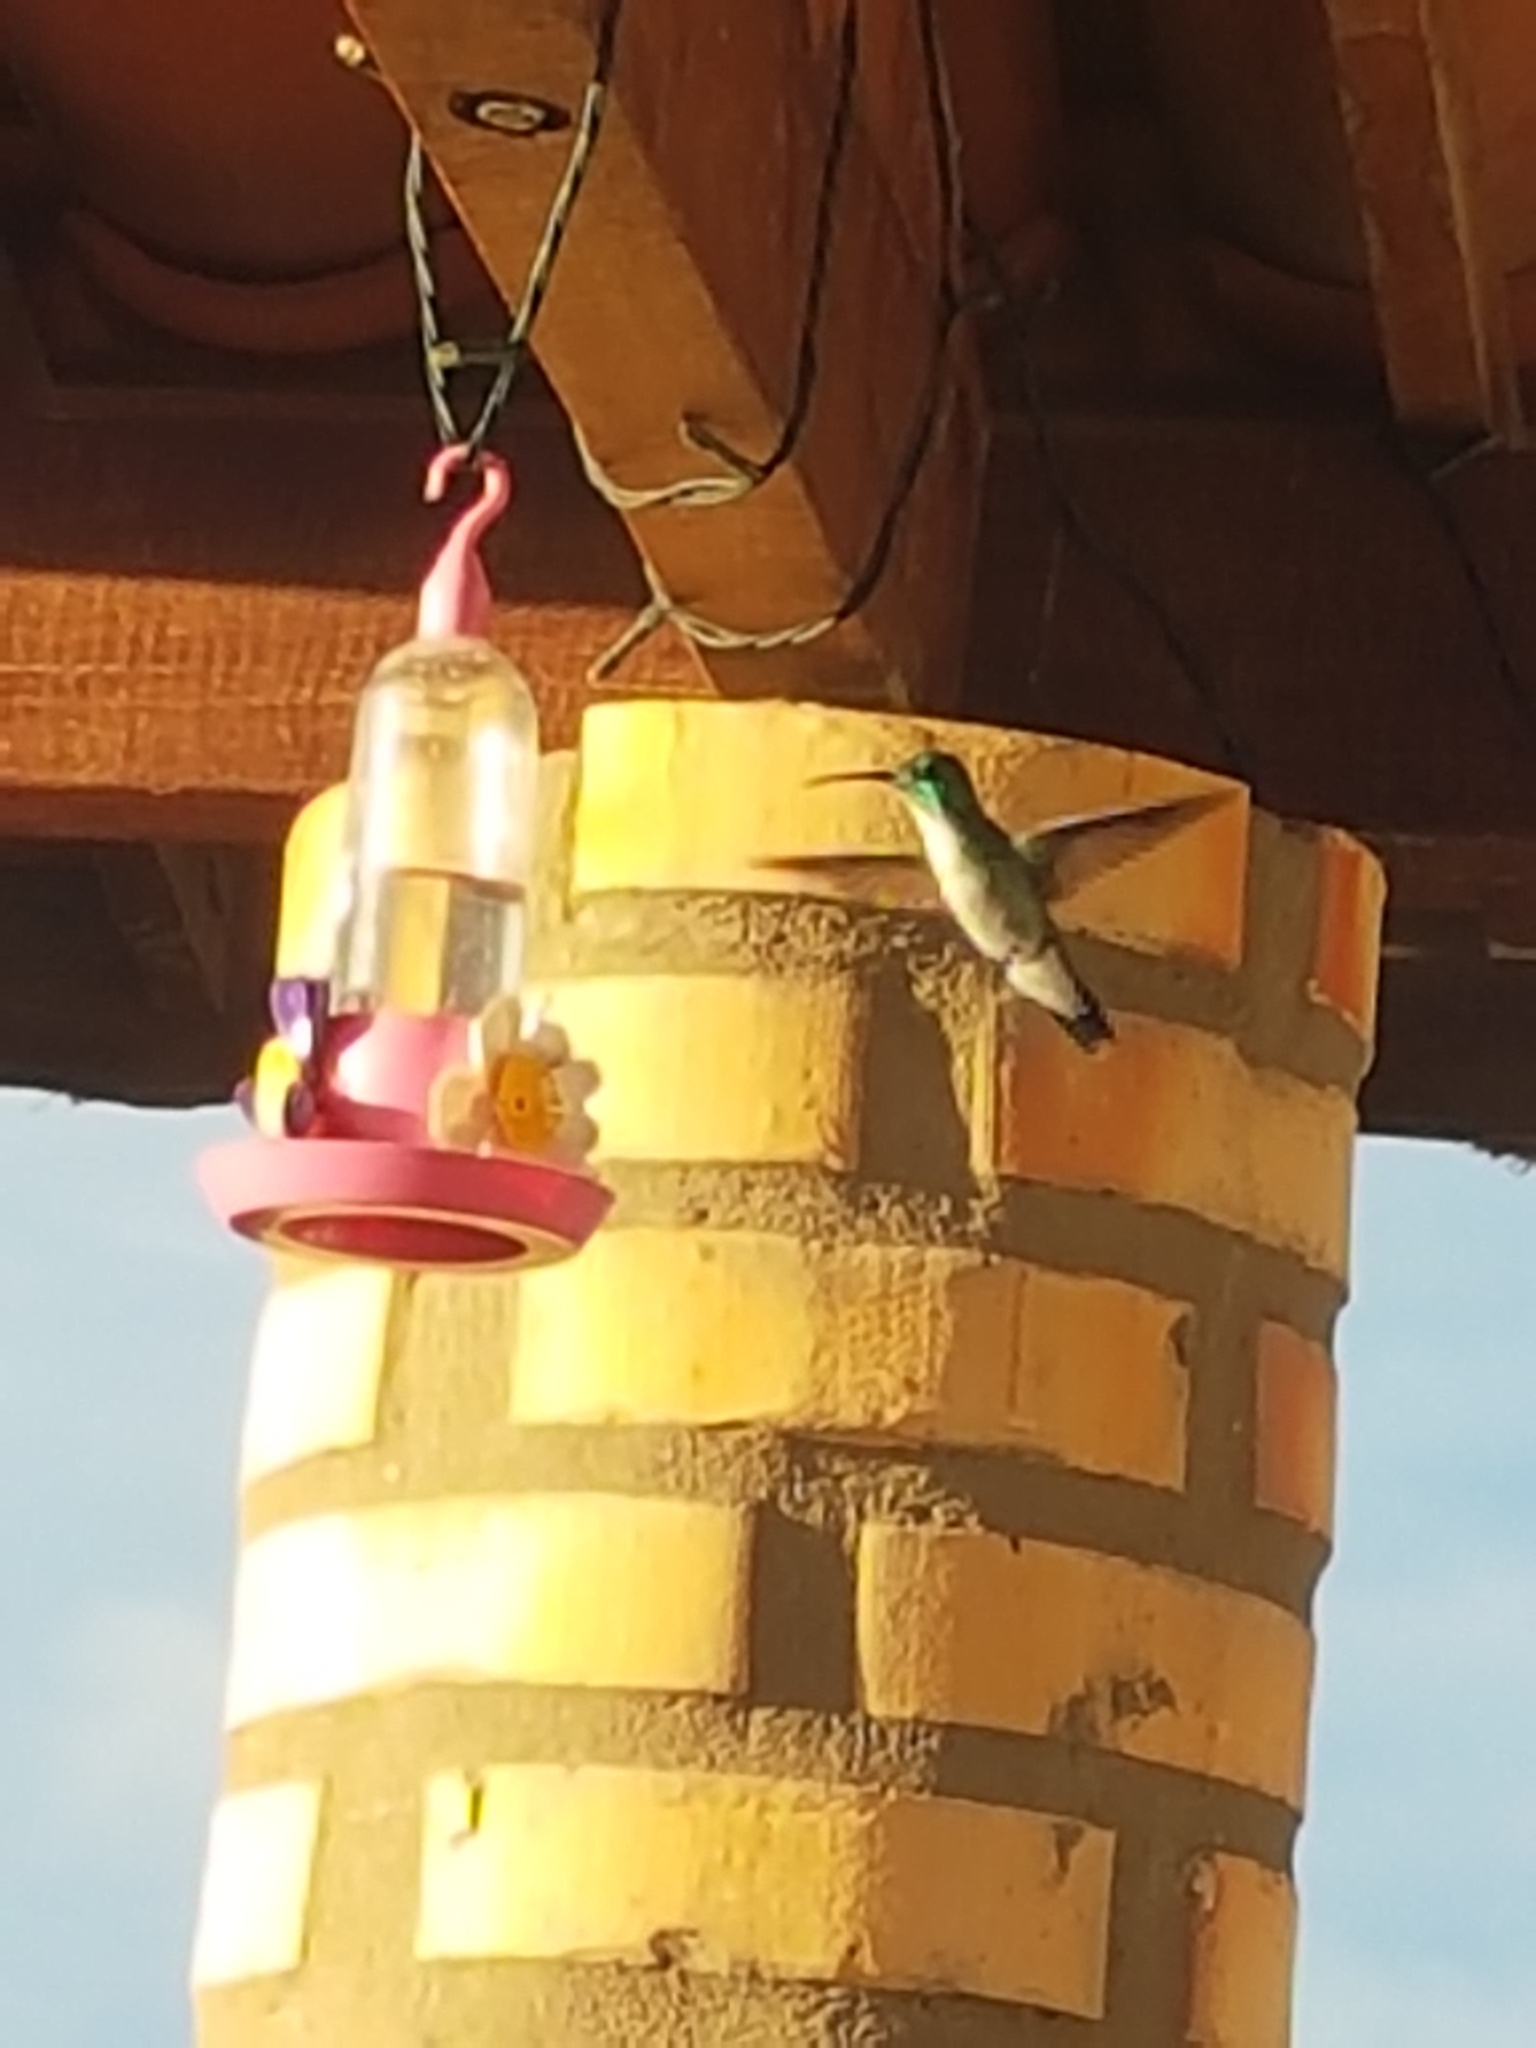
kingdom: Animalia
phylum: Chordata
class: Aves
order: Apodiformes
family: Trochilidae
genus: Chrysuronia
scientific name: Chrysuronia leucogaster
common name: Plain-bellied emerald
